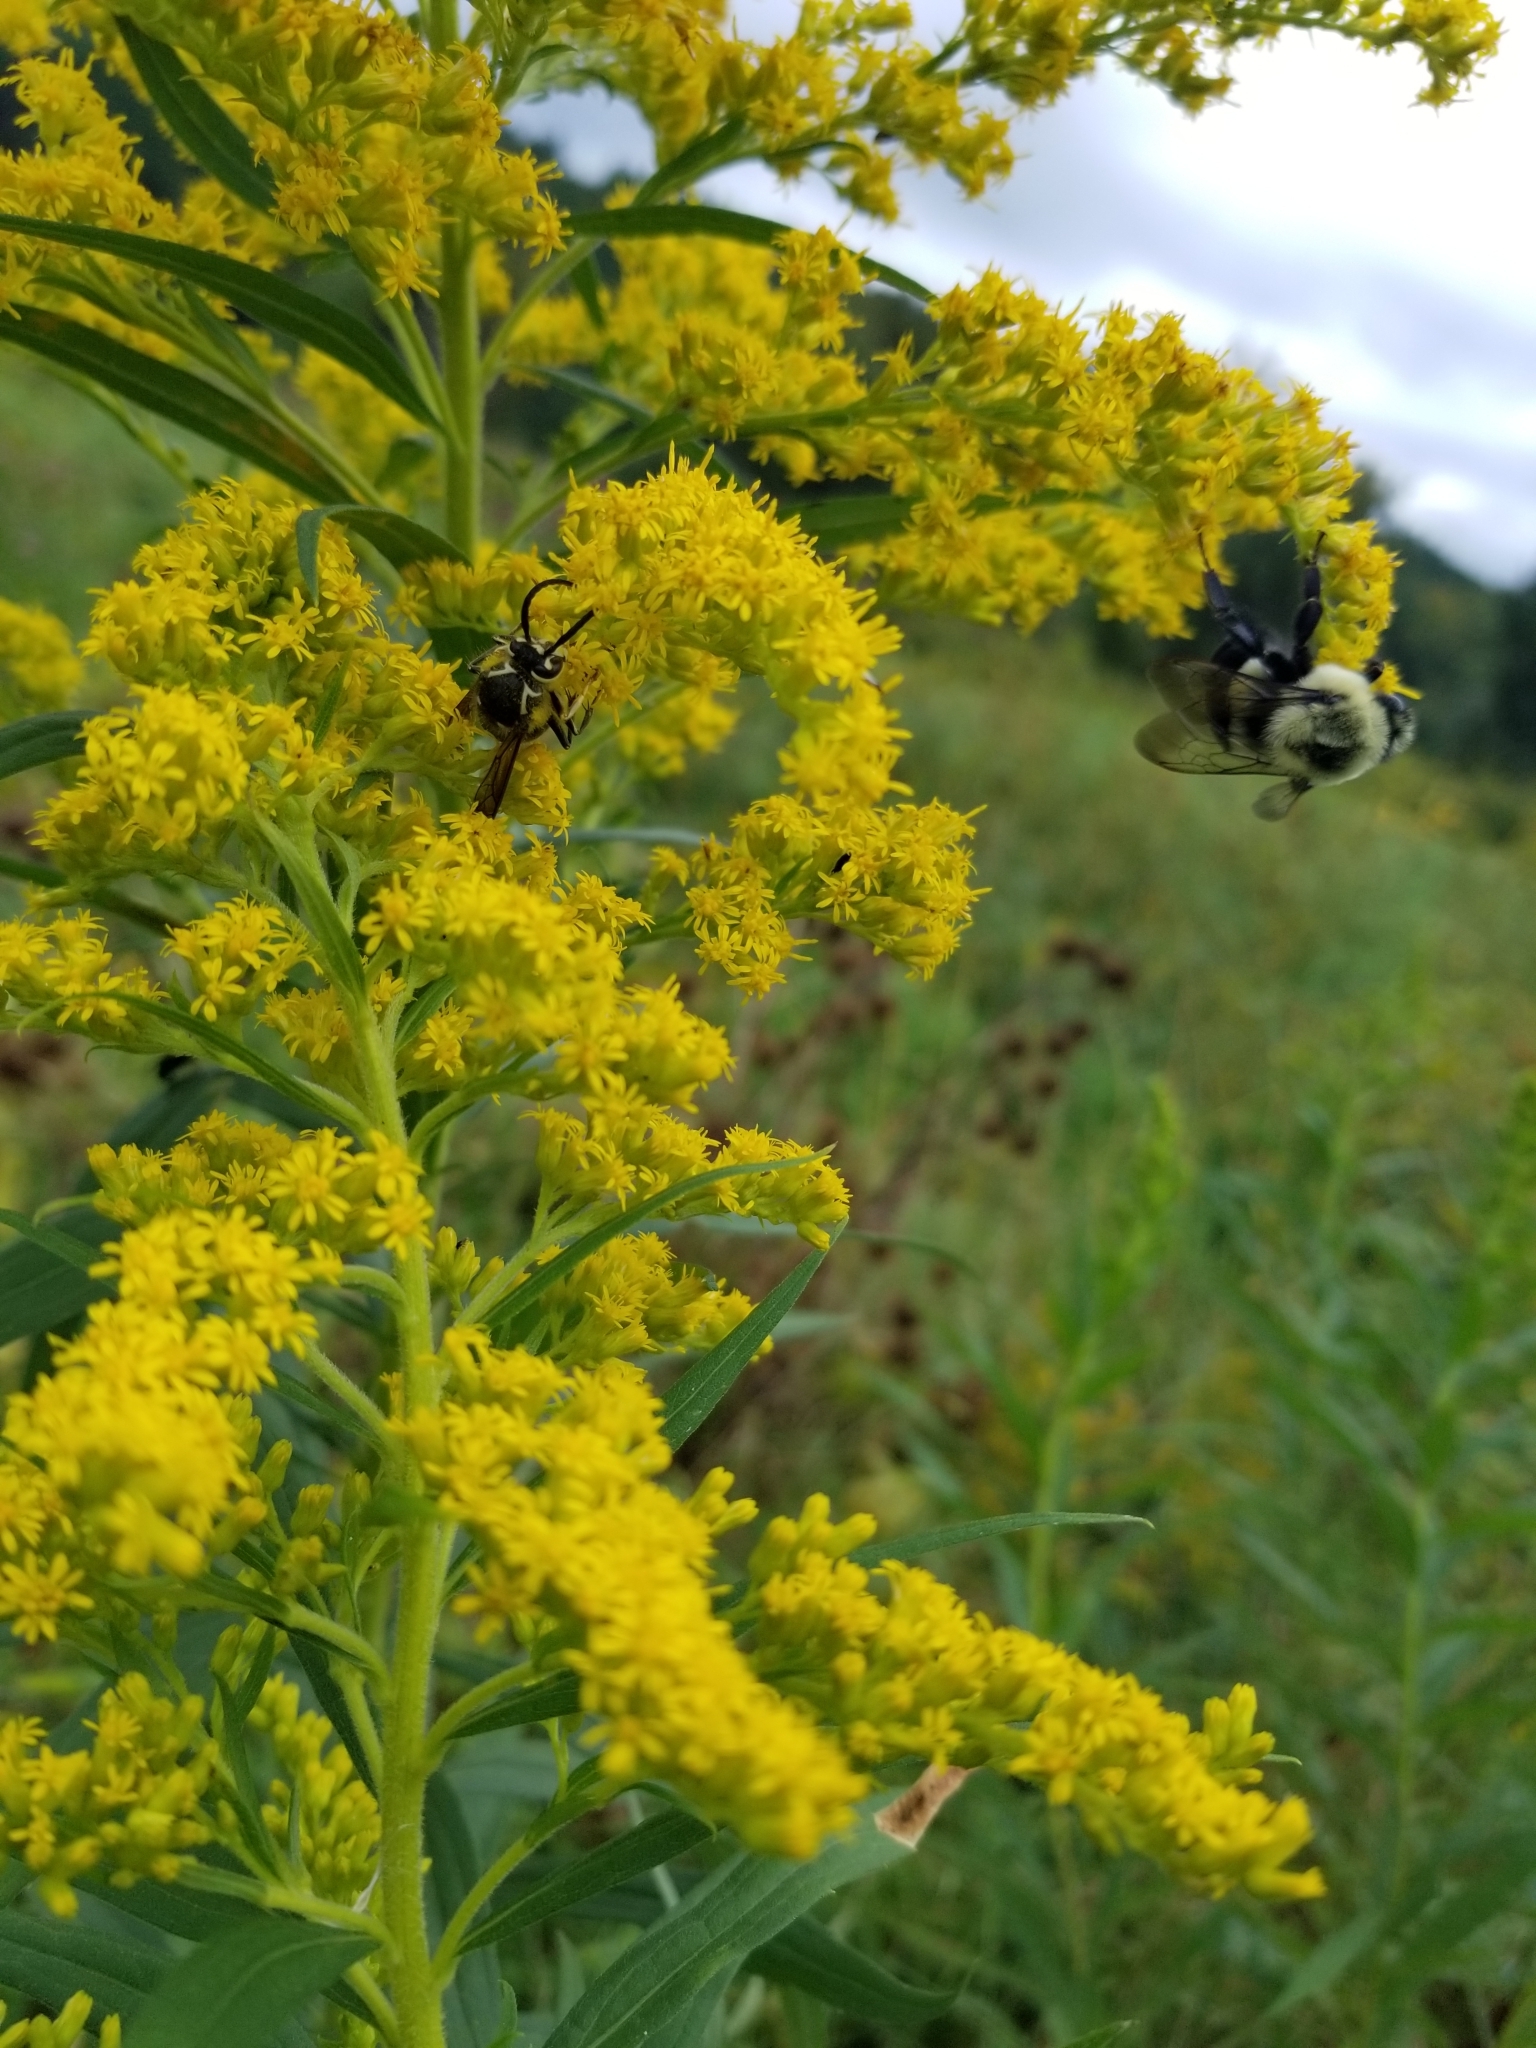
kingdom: Animalia
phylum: Arthropoda
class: Insecta
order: Hymenoptera
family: Vespidae
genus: Dolichovespula
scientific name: Dolichovespula maculata
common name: Bald-faced hornet
